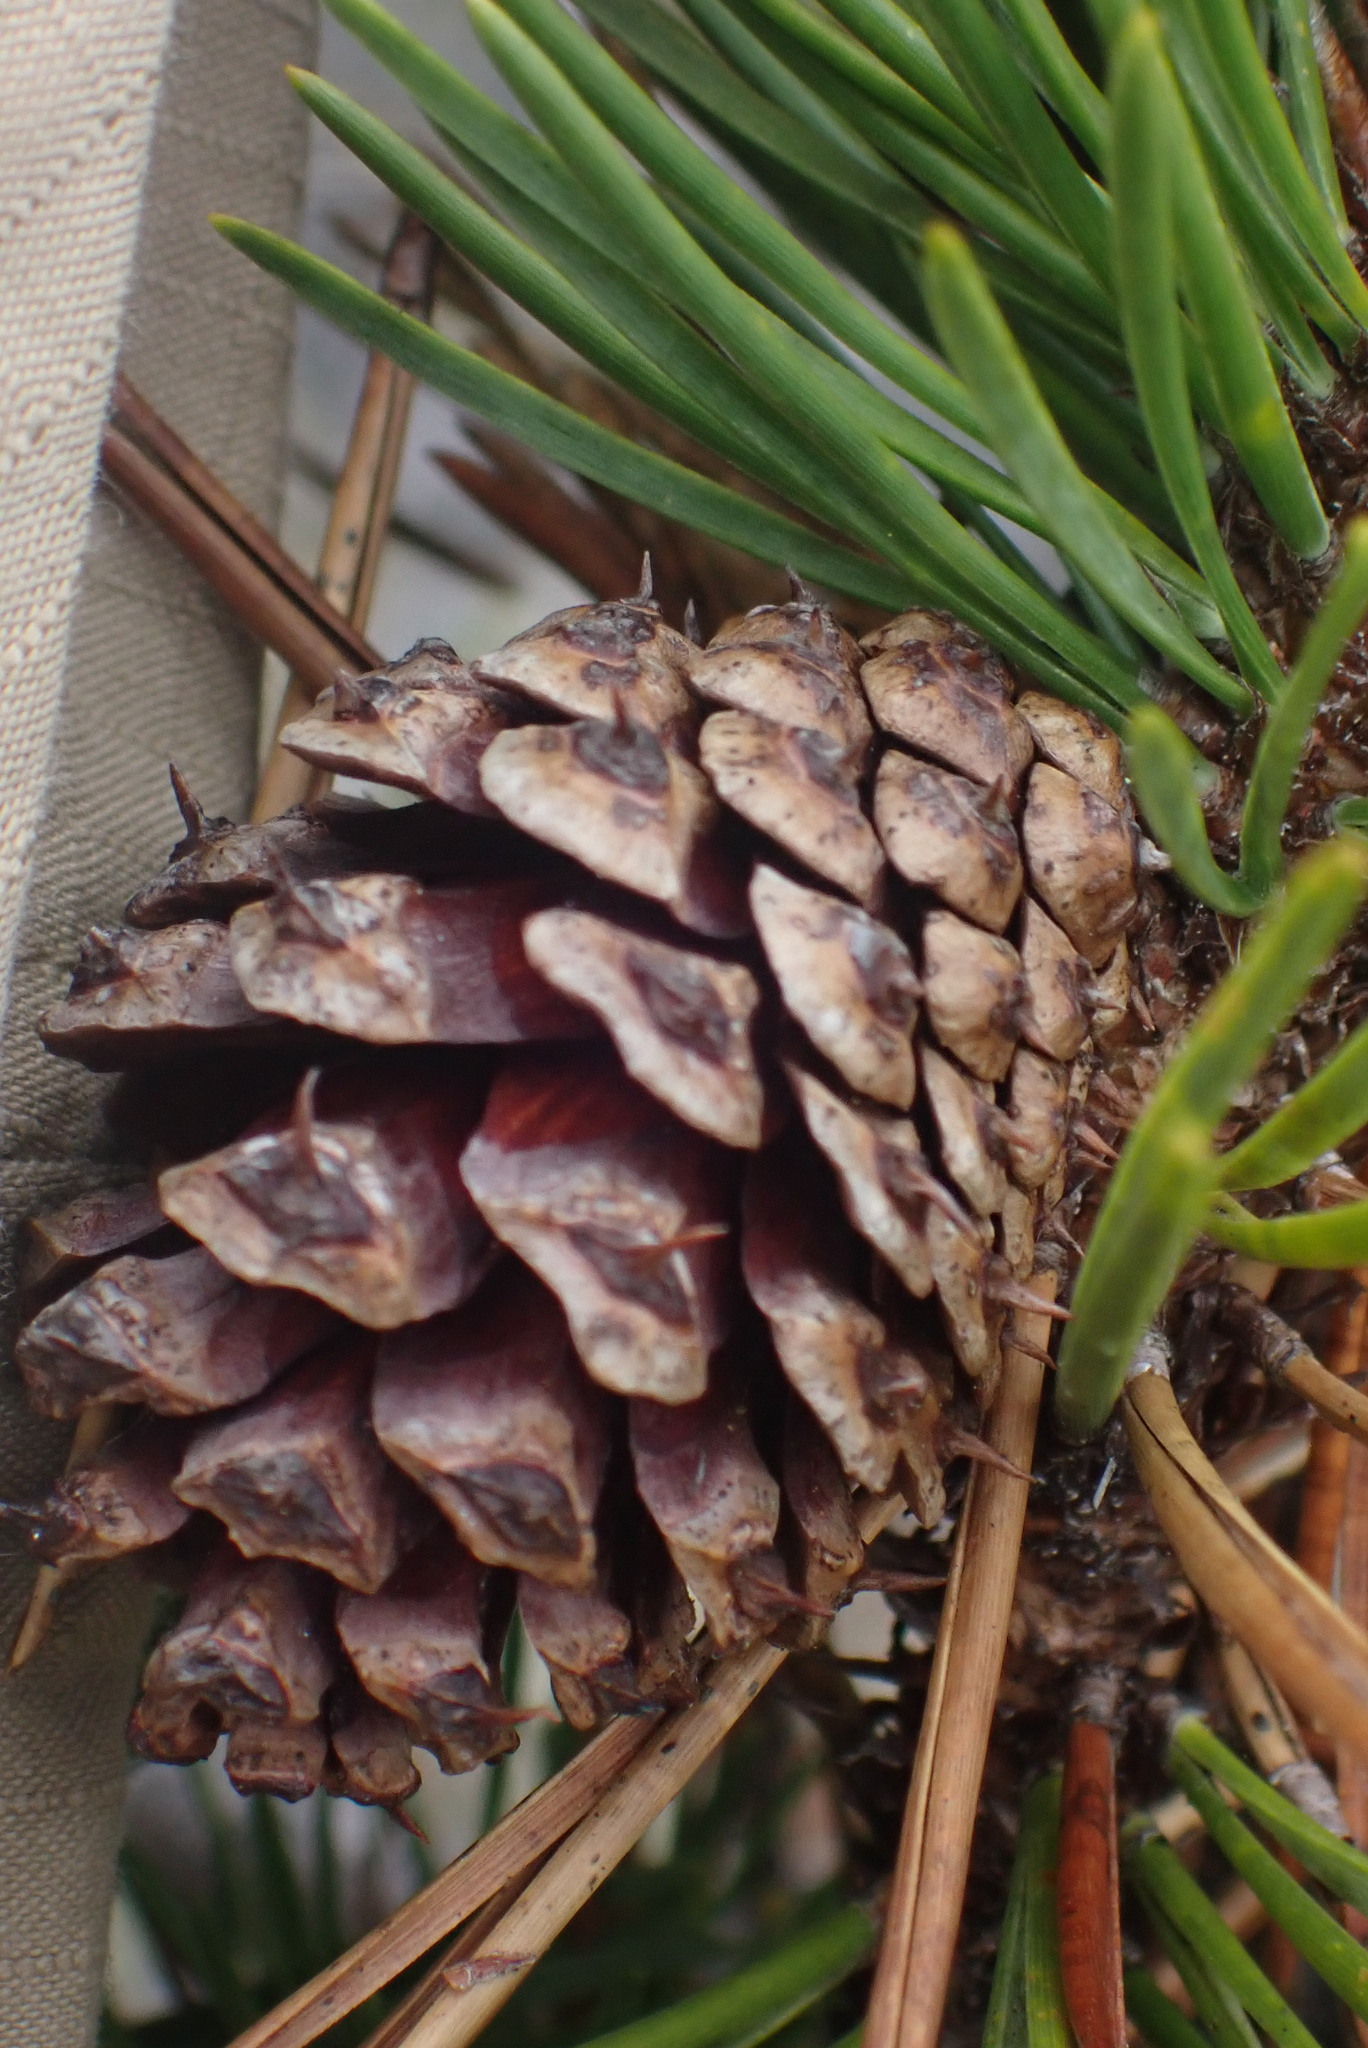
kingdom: Plantae
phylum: Tracheophyta
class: Pinopsida
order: Pinales
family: Pinaceae
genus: Pinus
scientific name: Pinus contorta
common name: Lodgepole pine
